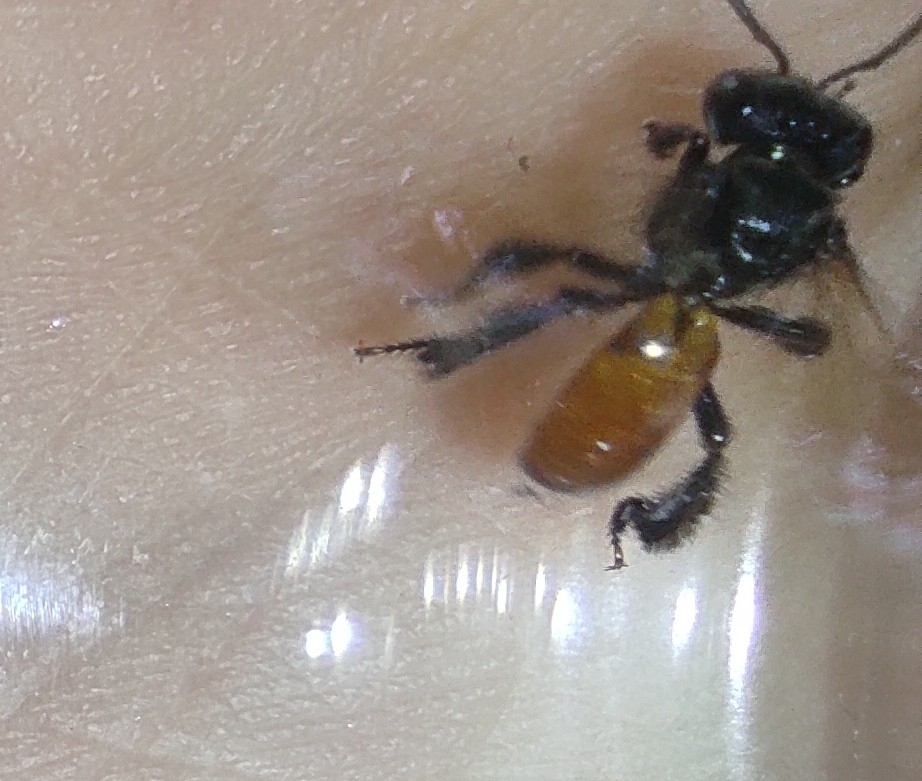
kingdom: Animalia
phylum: Arthropoda
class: Insecta
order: Hymenoptera
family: Apidae
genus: Trigona
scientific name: Trigona fulviventris
